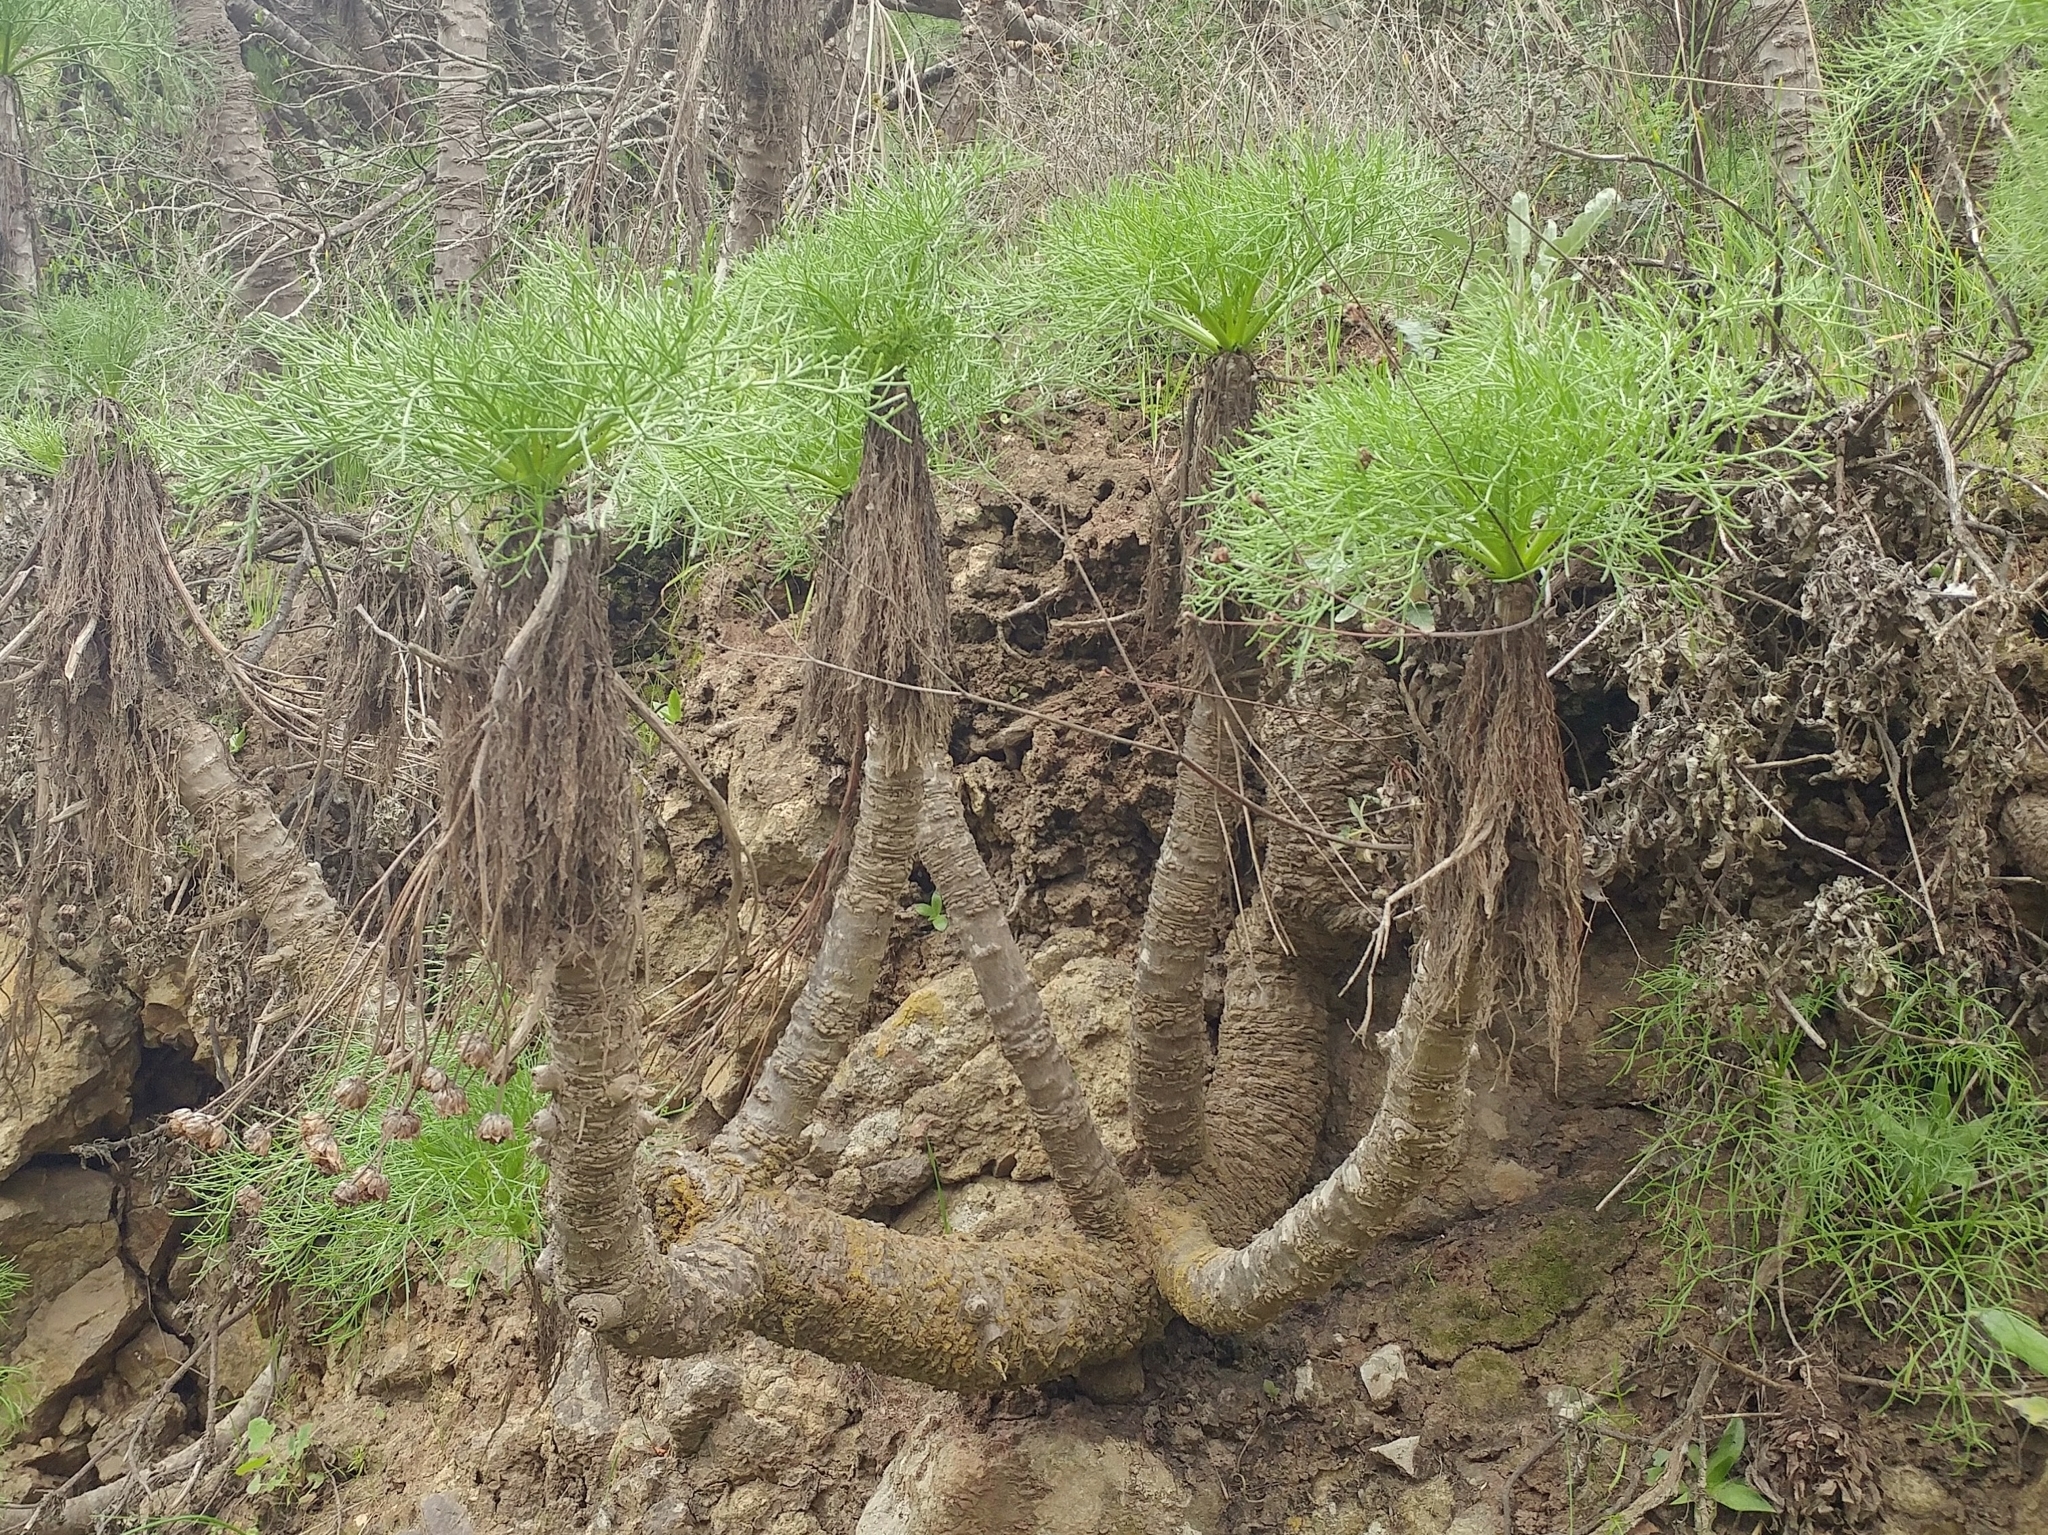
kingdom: Plantae
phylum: Tracheophyta
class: Magnoliopsida
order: Asterales
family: Asteraceae
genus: Coreopsis
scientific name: Coreopsis gigantea
